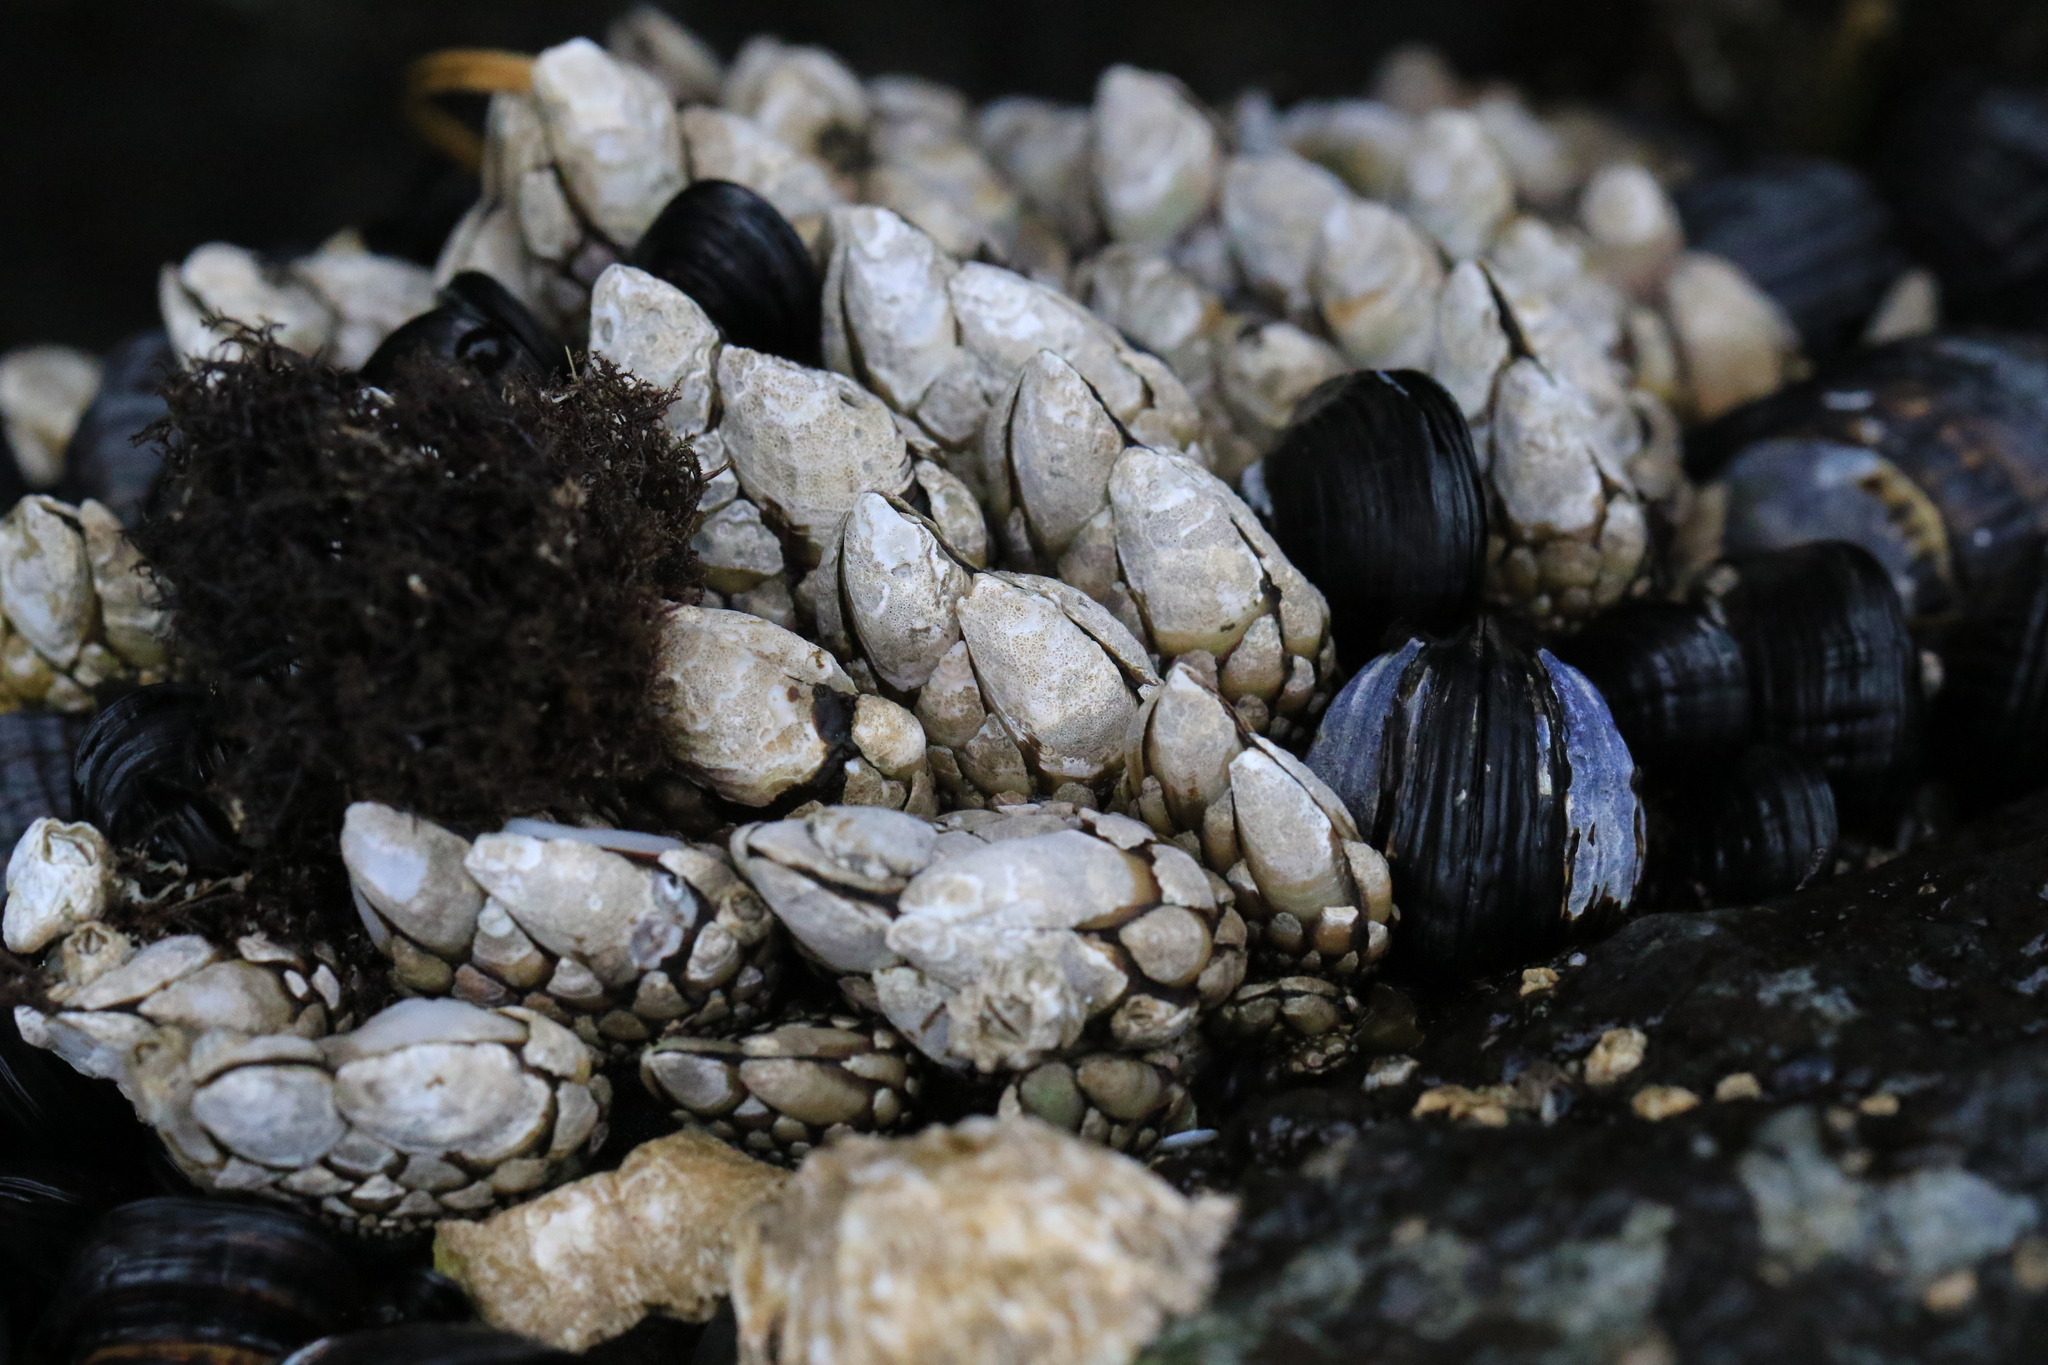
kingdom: Animalia
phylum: Arthropoda
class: Maxillopoda
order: Pedunculata
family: Pollicipedidae
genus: Pollicipes
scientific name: Pollicipes polymerus
